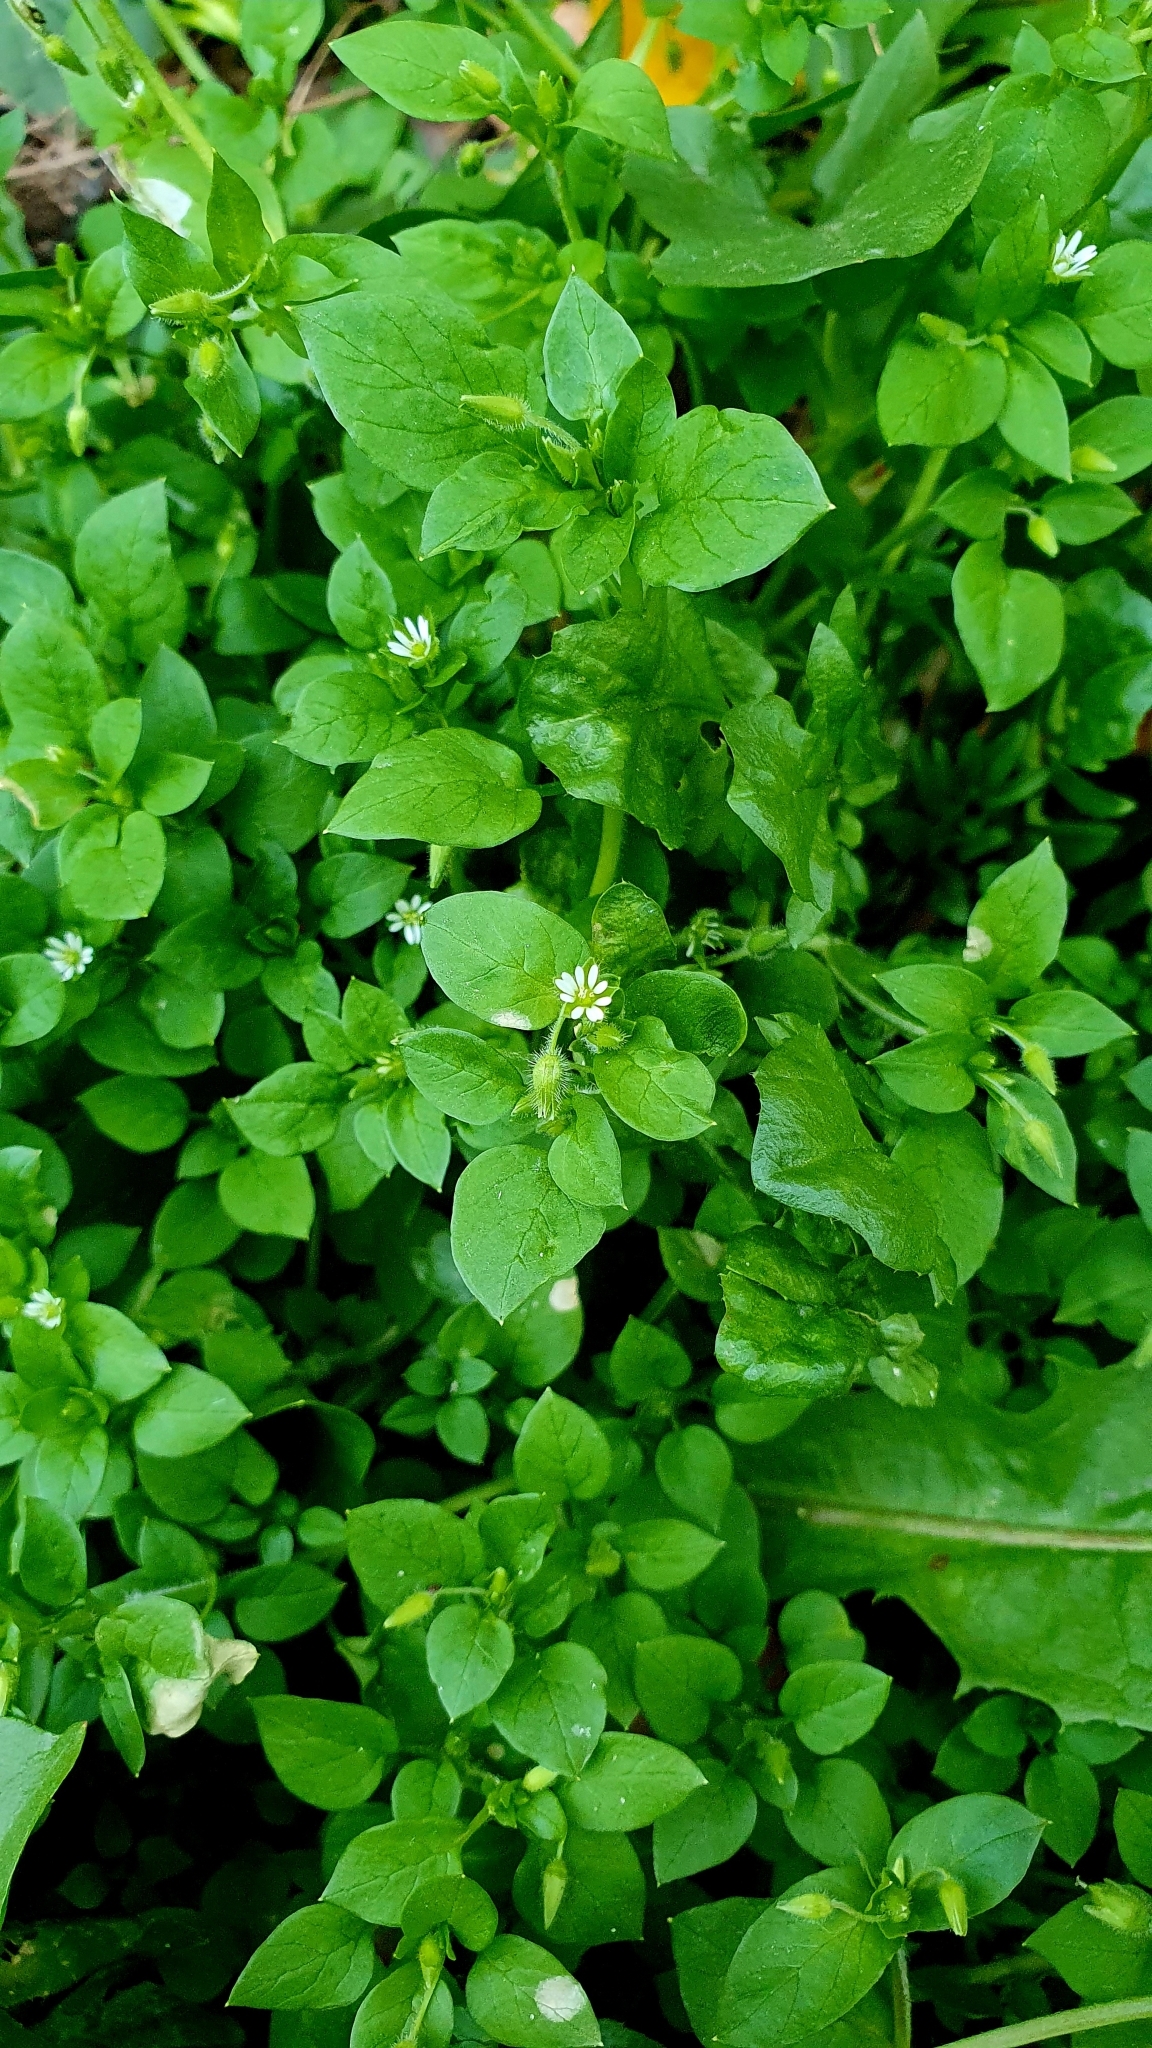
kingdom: Plantae
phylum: Tracheophyta
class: Magnoliopsida
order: Caryophyllales
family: Caryophyllaceae
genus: Stellaria
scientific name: Stellaria media
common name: Common chickweed
